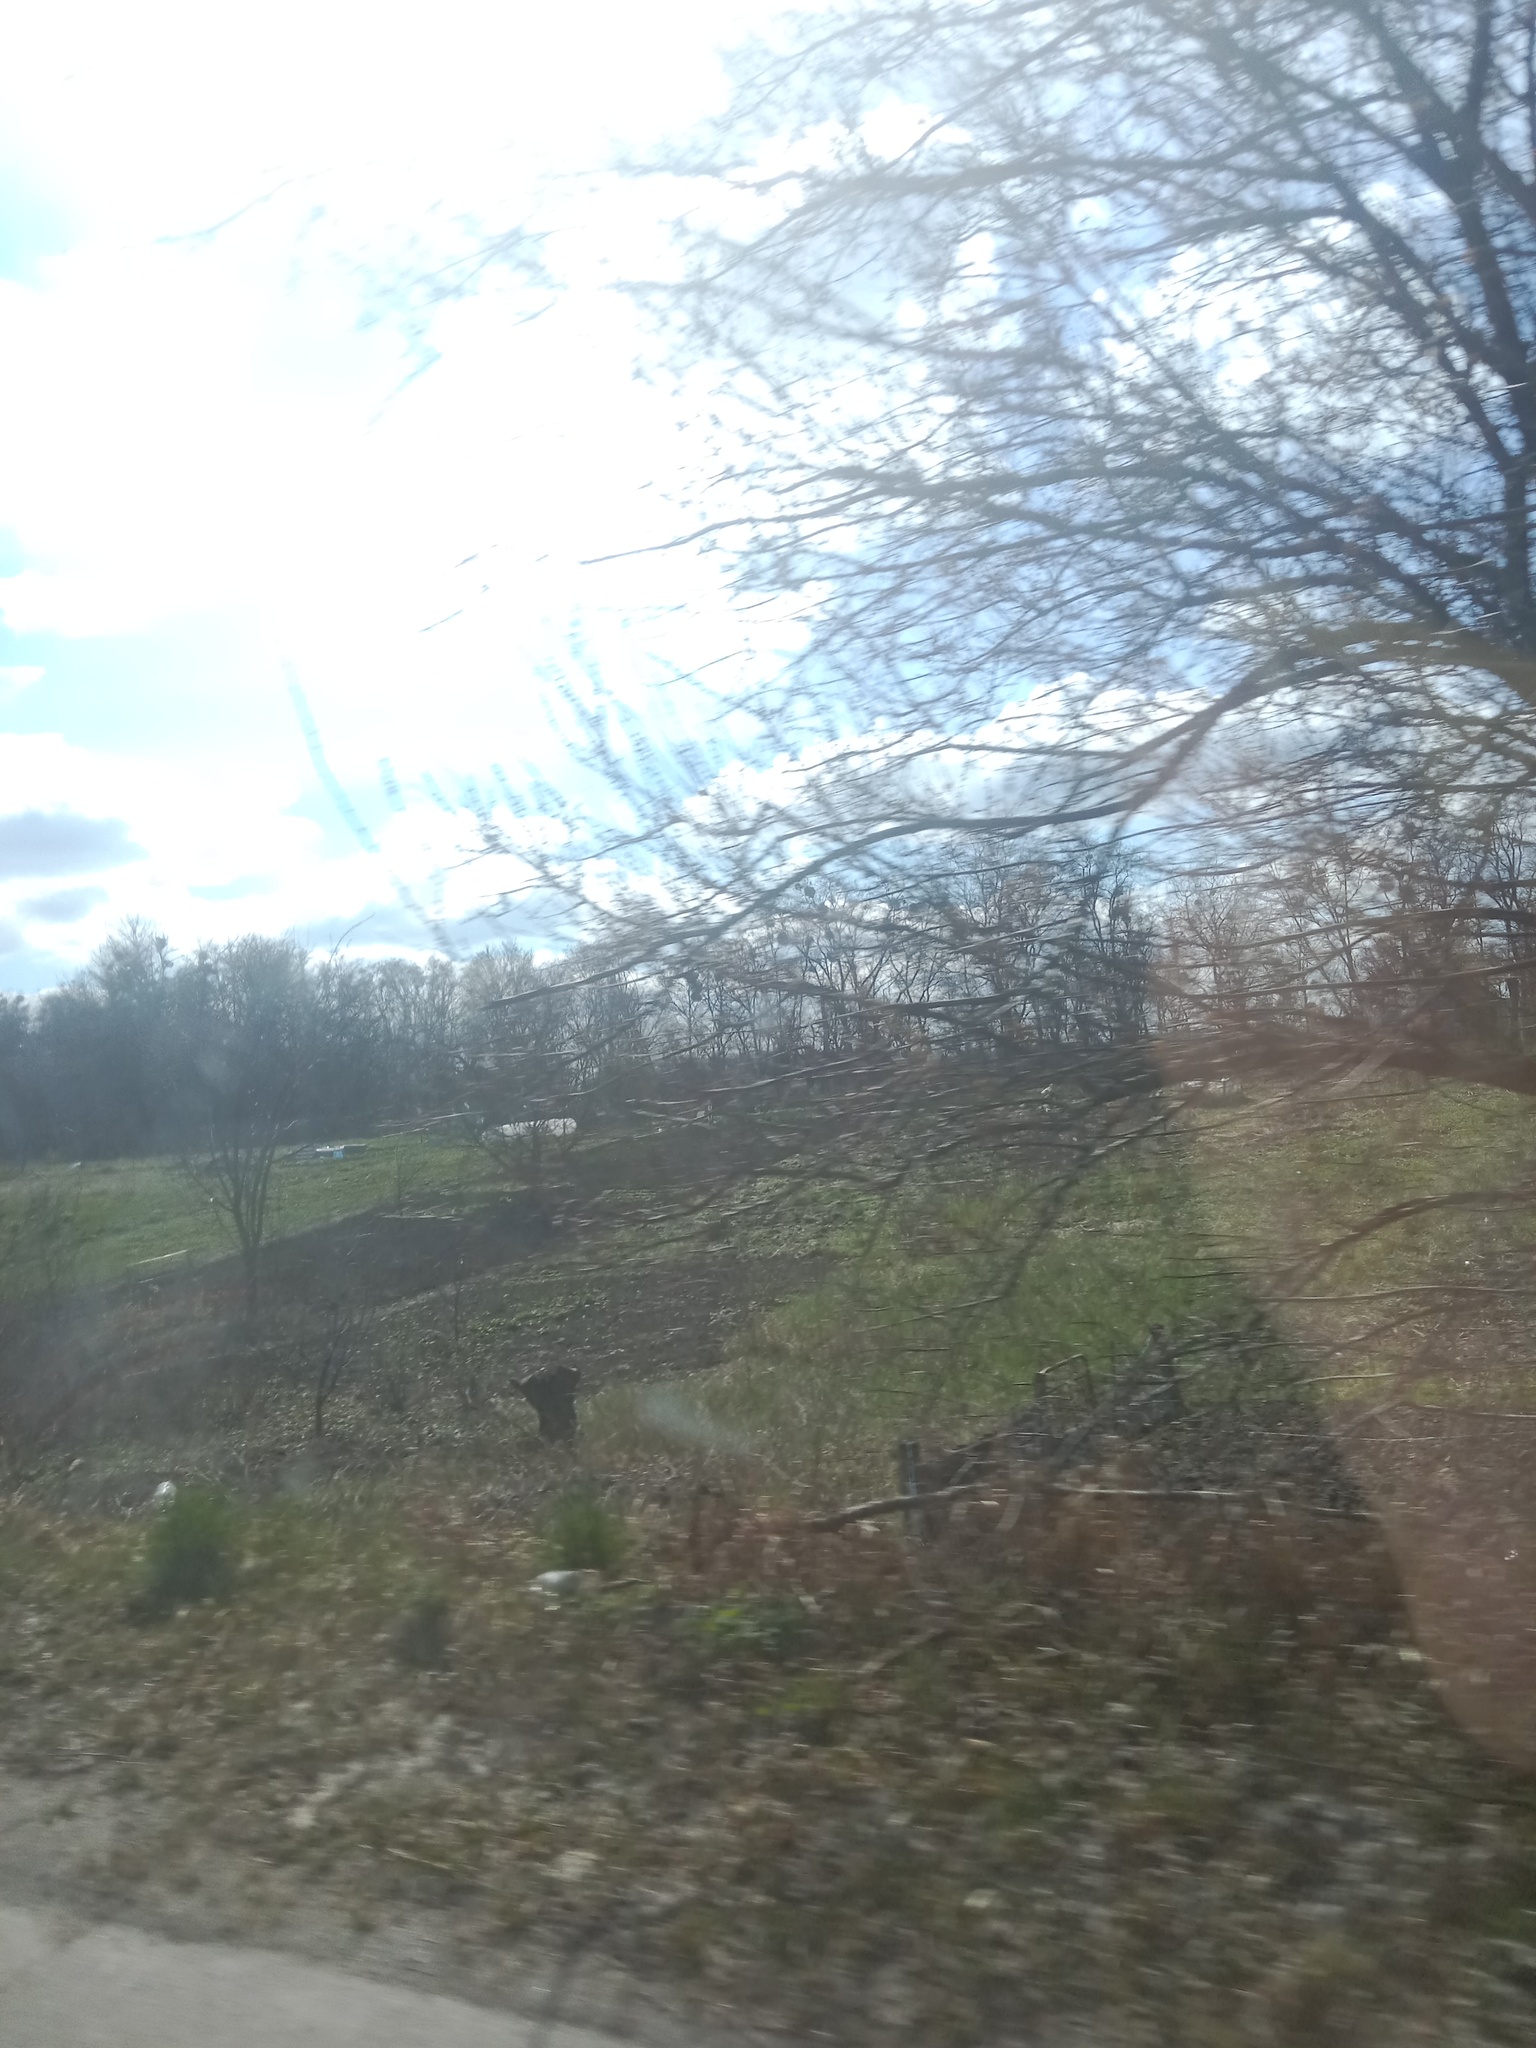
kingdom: Plantae
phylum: Tracheophyta
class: Magnoliopsida
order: Santalales
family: Viscaceae
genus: Viscum
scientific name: Viscum album
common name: Mistletoe
